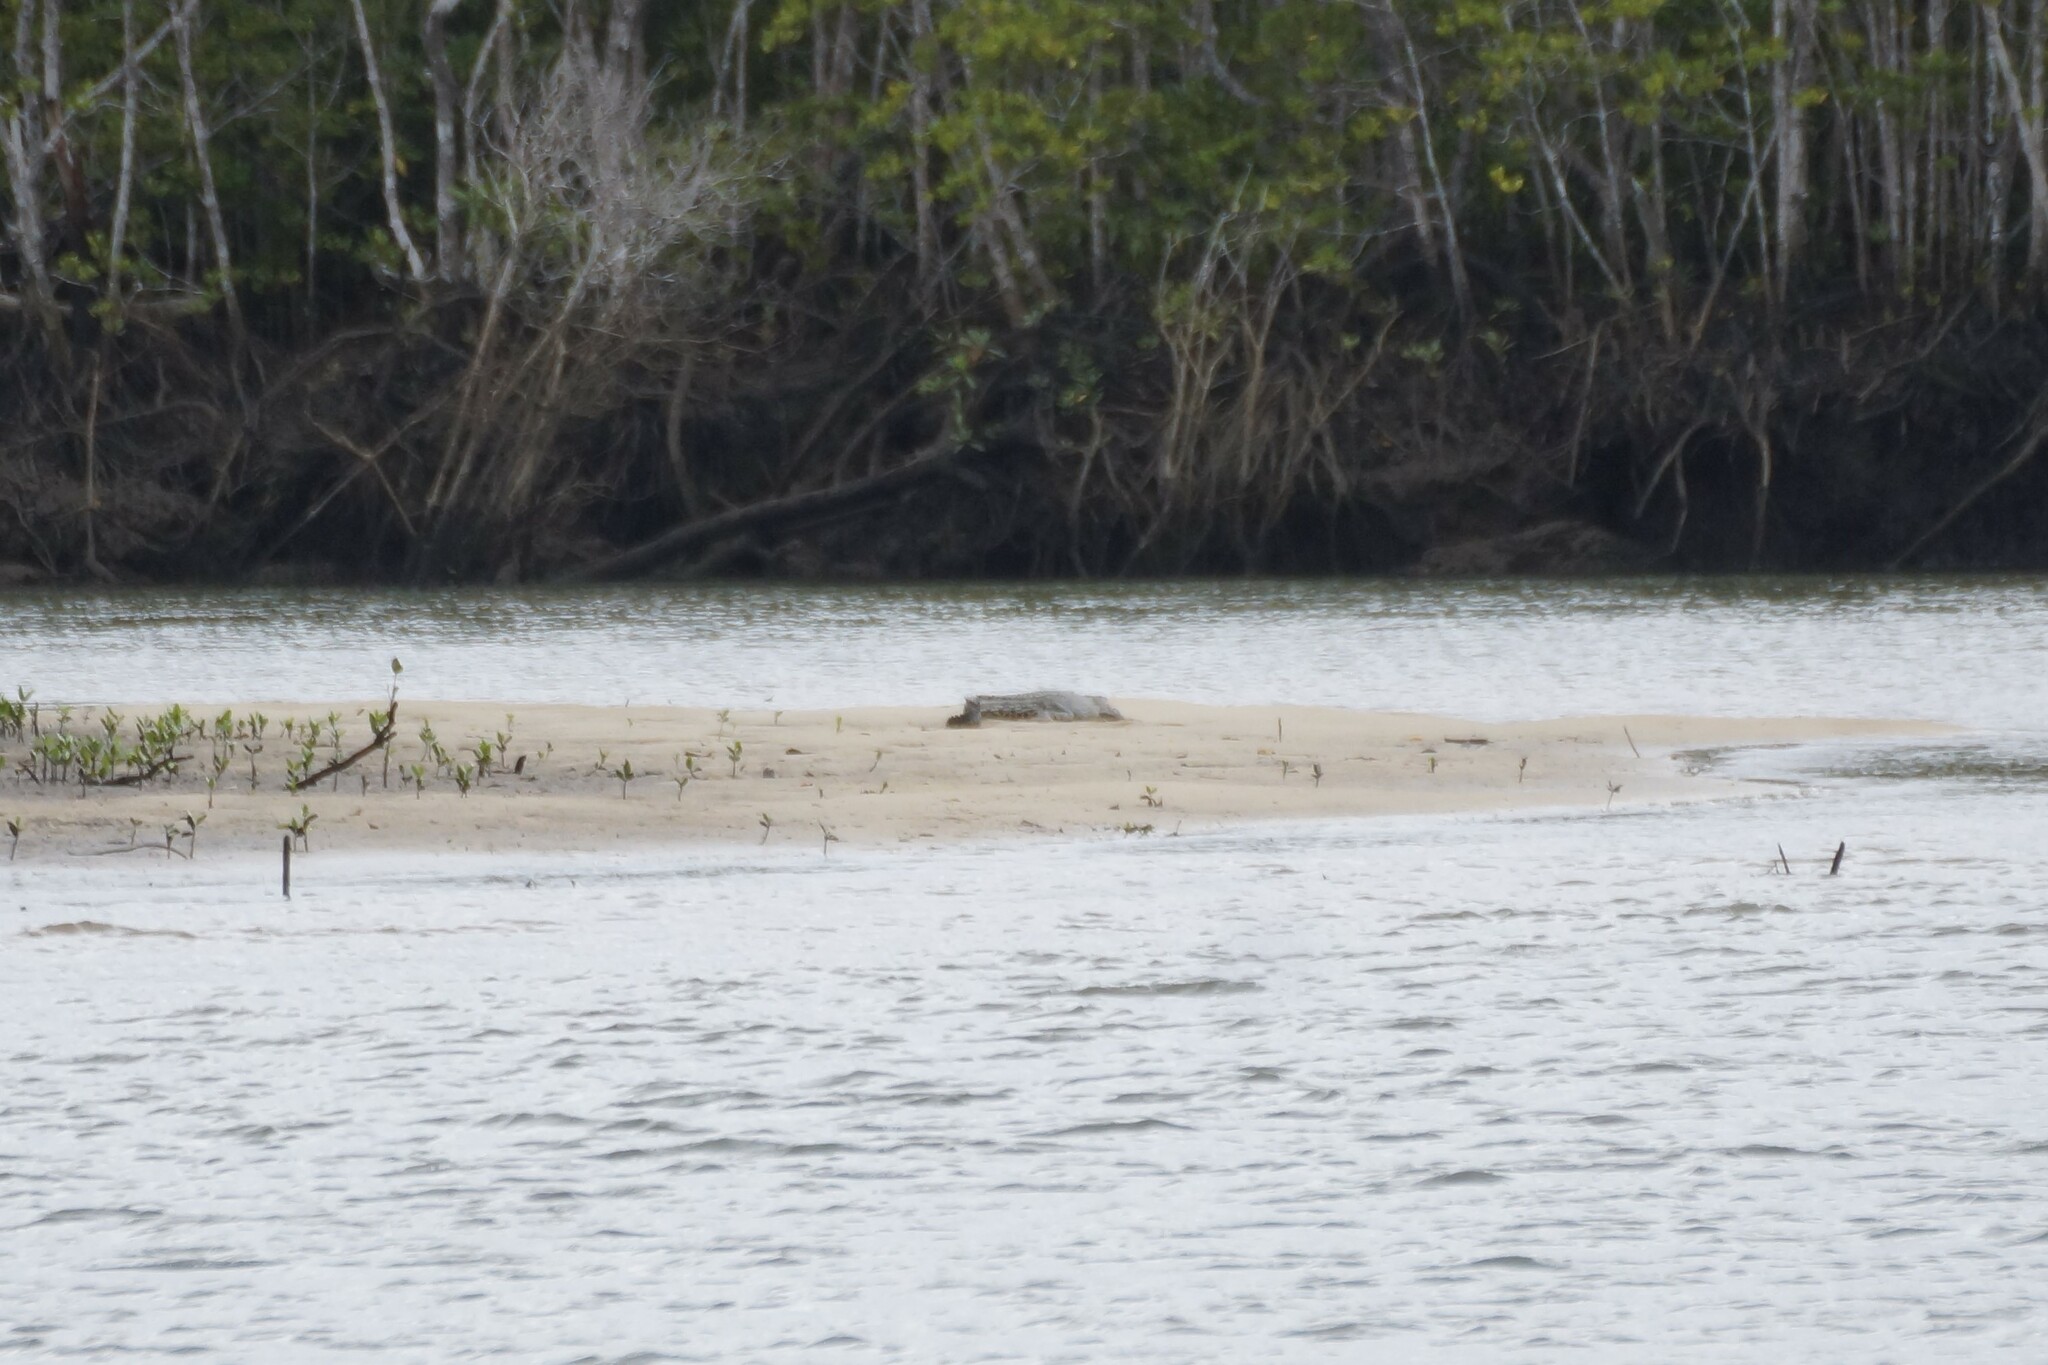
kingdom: Animalia
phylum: Chordata
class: Crocodylia
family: Crocodylidae
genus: Crocodylus
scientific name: Crocodylus porosus
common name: Saltwater crocodile
